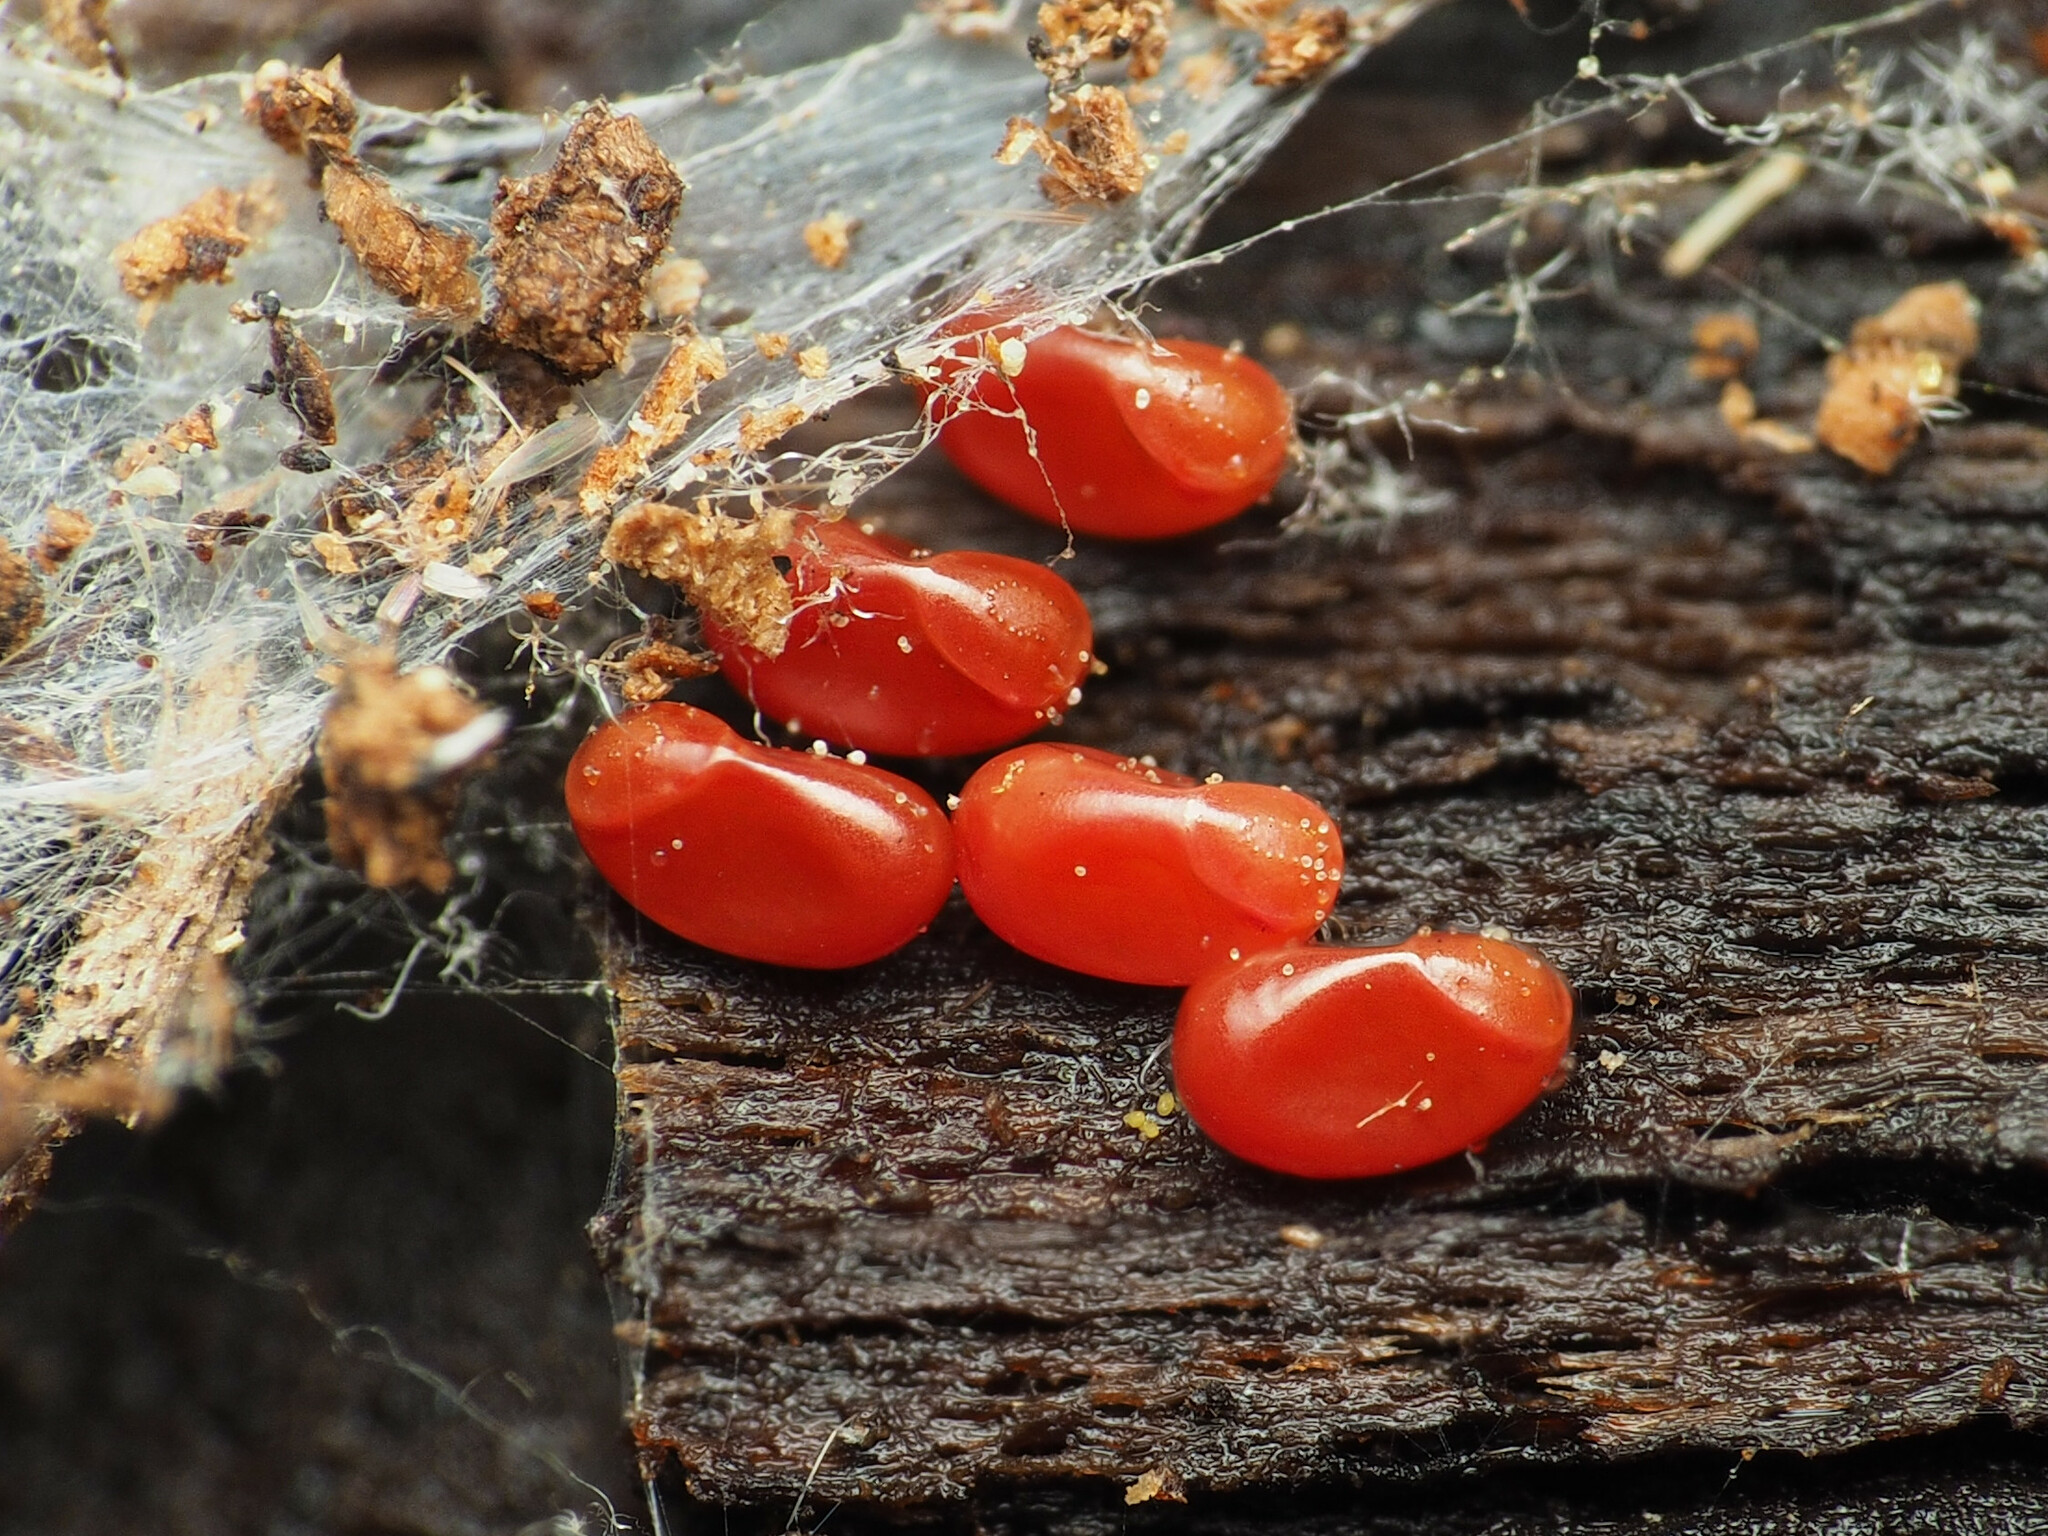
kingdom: Animalia
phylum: Arthropoda
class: Insecta
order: Hemiptera
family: Rhopalidae
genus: Boisea
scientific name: Boisea trivittata
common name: Boxelder bug
